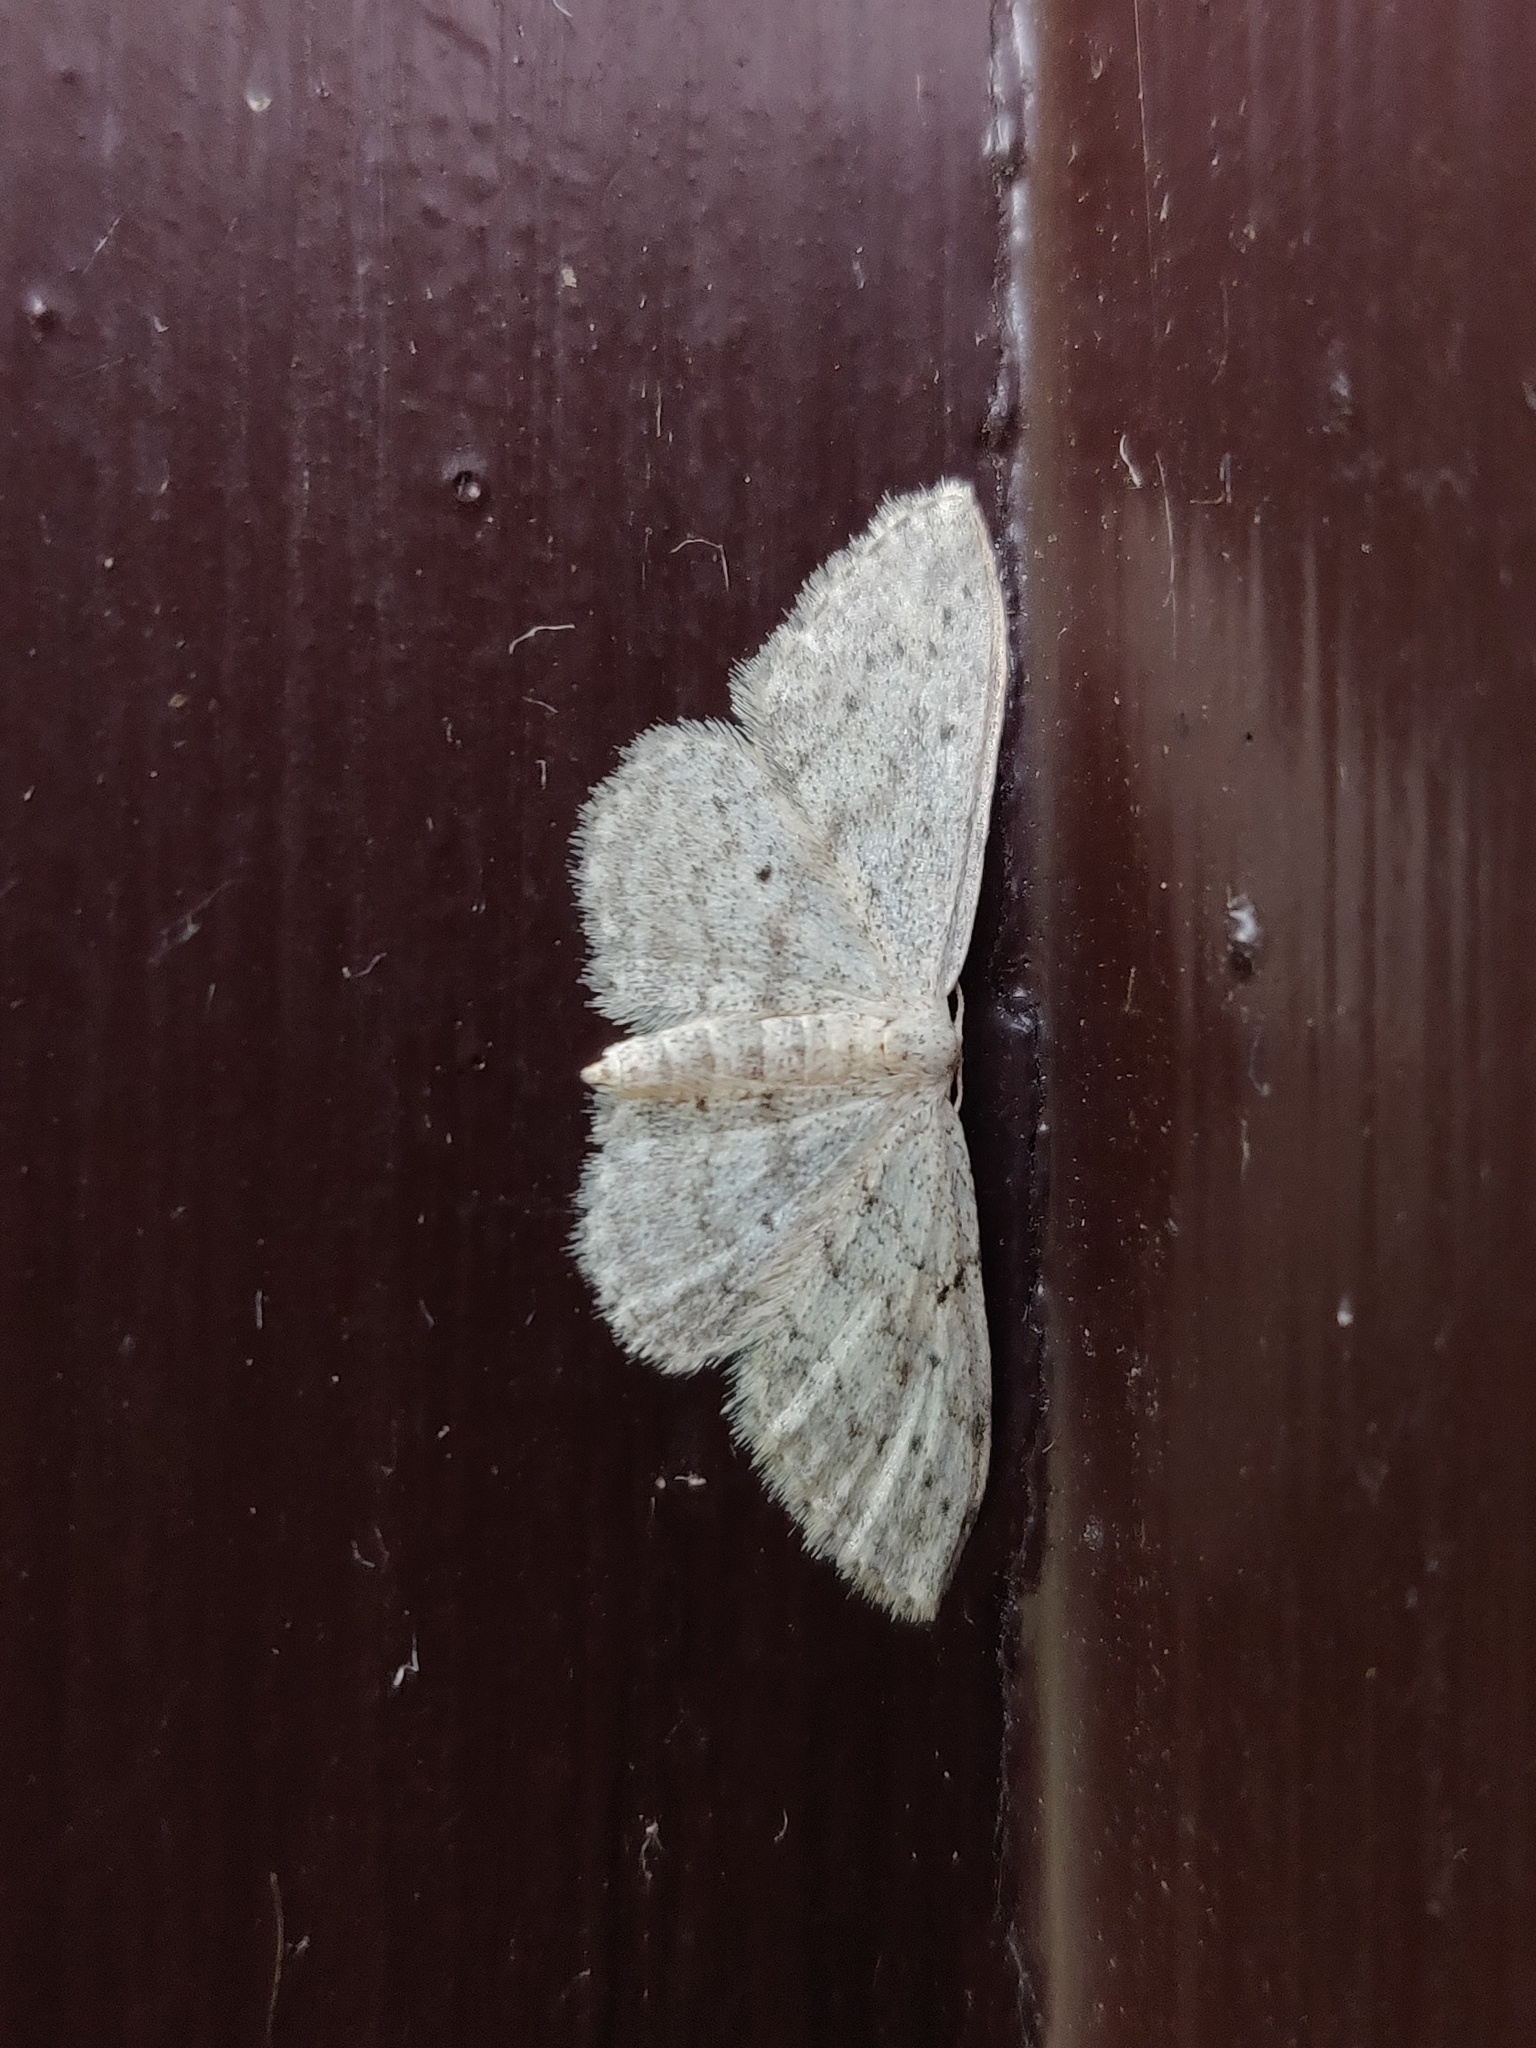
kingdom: Animalia
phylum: Arthropoda
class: Insecta
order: Lepidoptera
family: Geometridae
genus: Idaea
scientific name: Idaea seriata
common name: Small dusty wave
